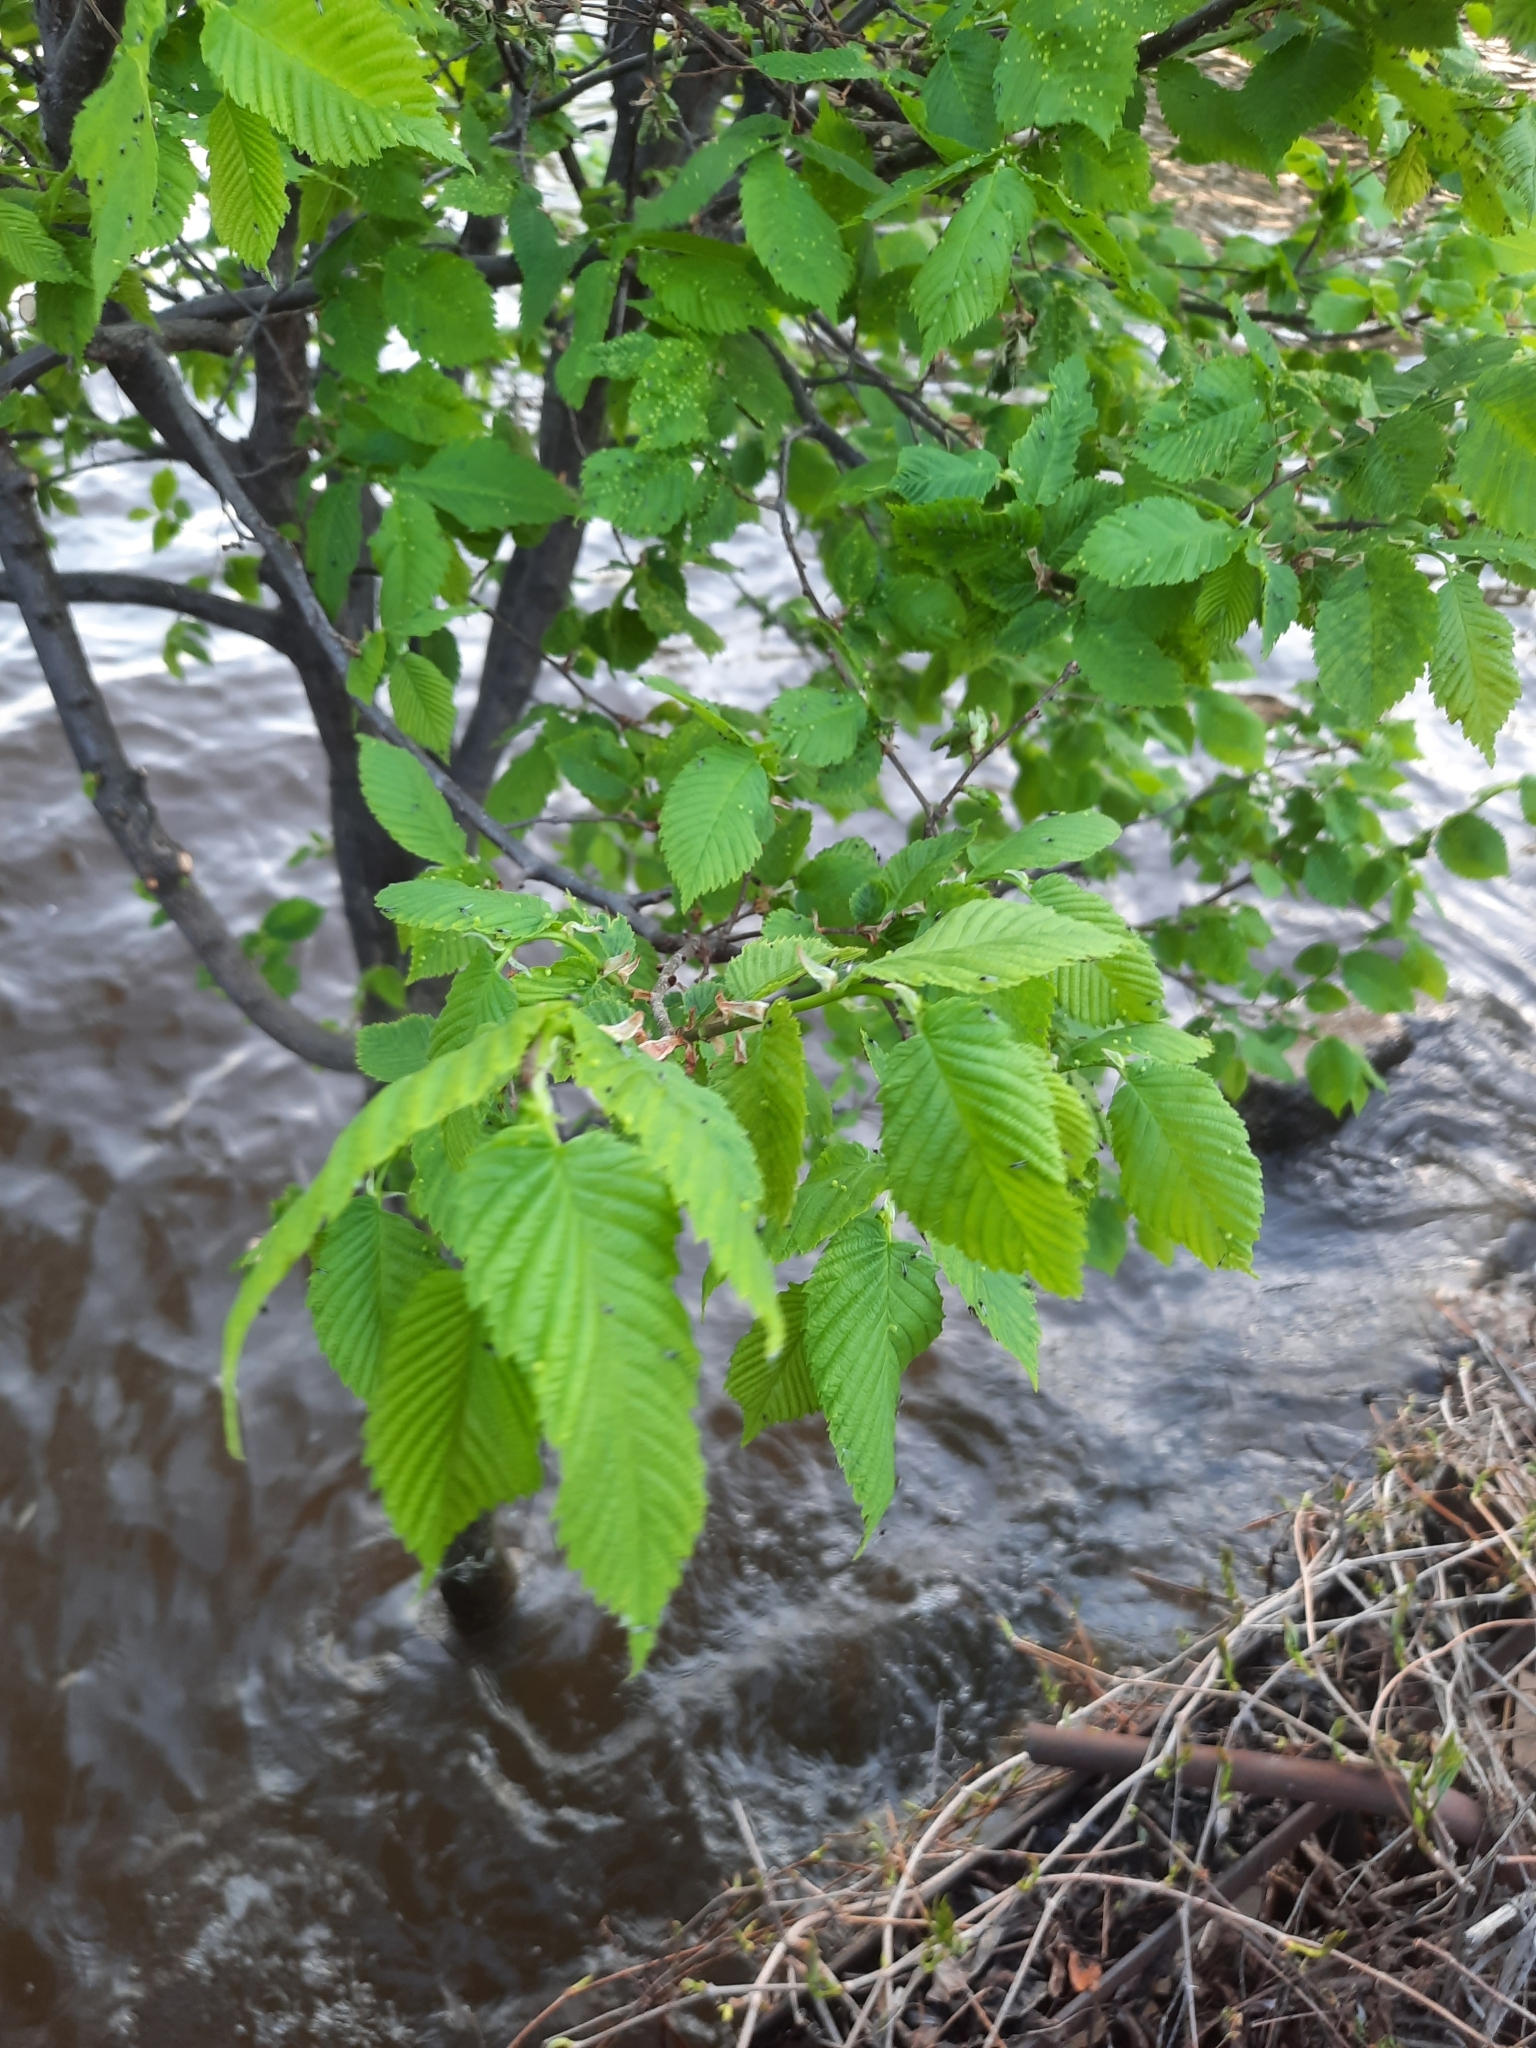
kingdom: Plantae
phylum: Tracheophyta
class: Magnoliopsida
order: Rosales
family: Ulmaceae
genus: Ulmus
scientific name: Ulmus laevis
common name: European white-elm
